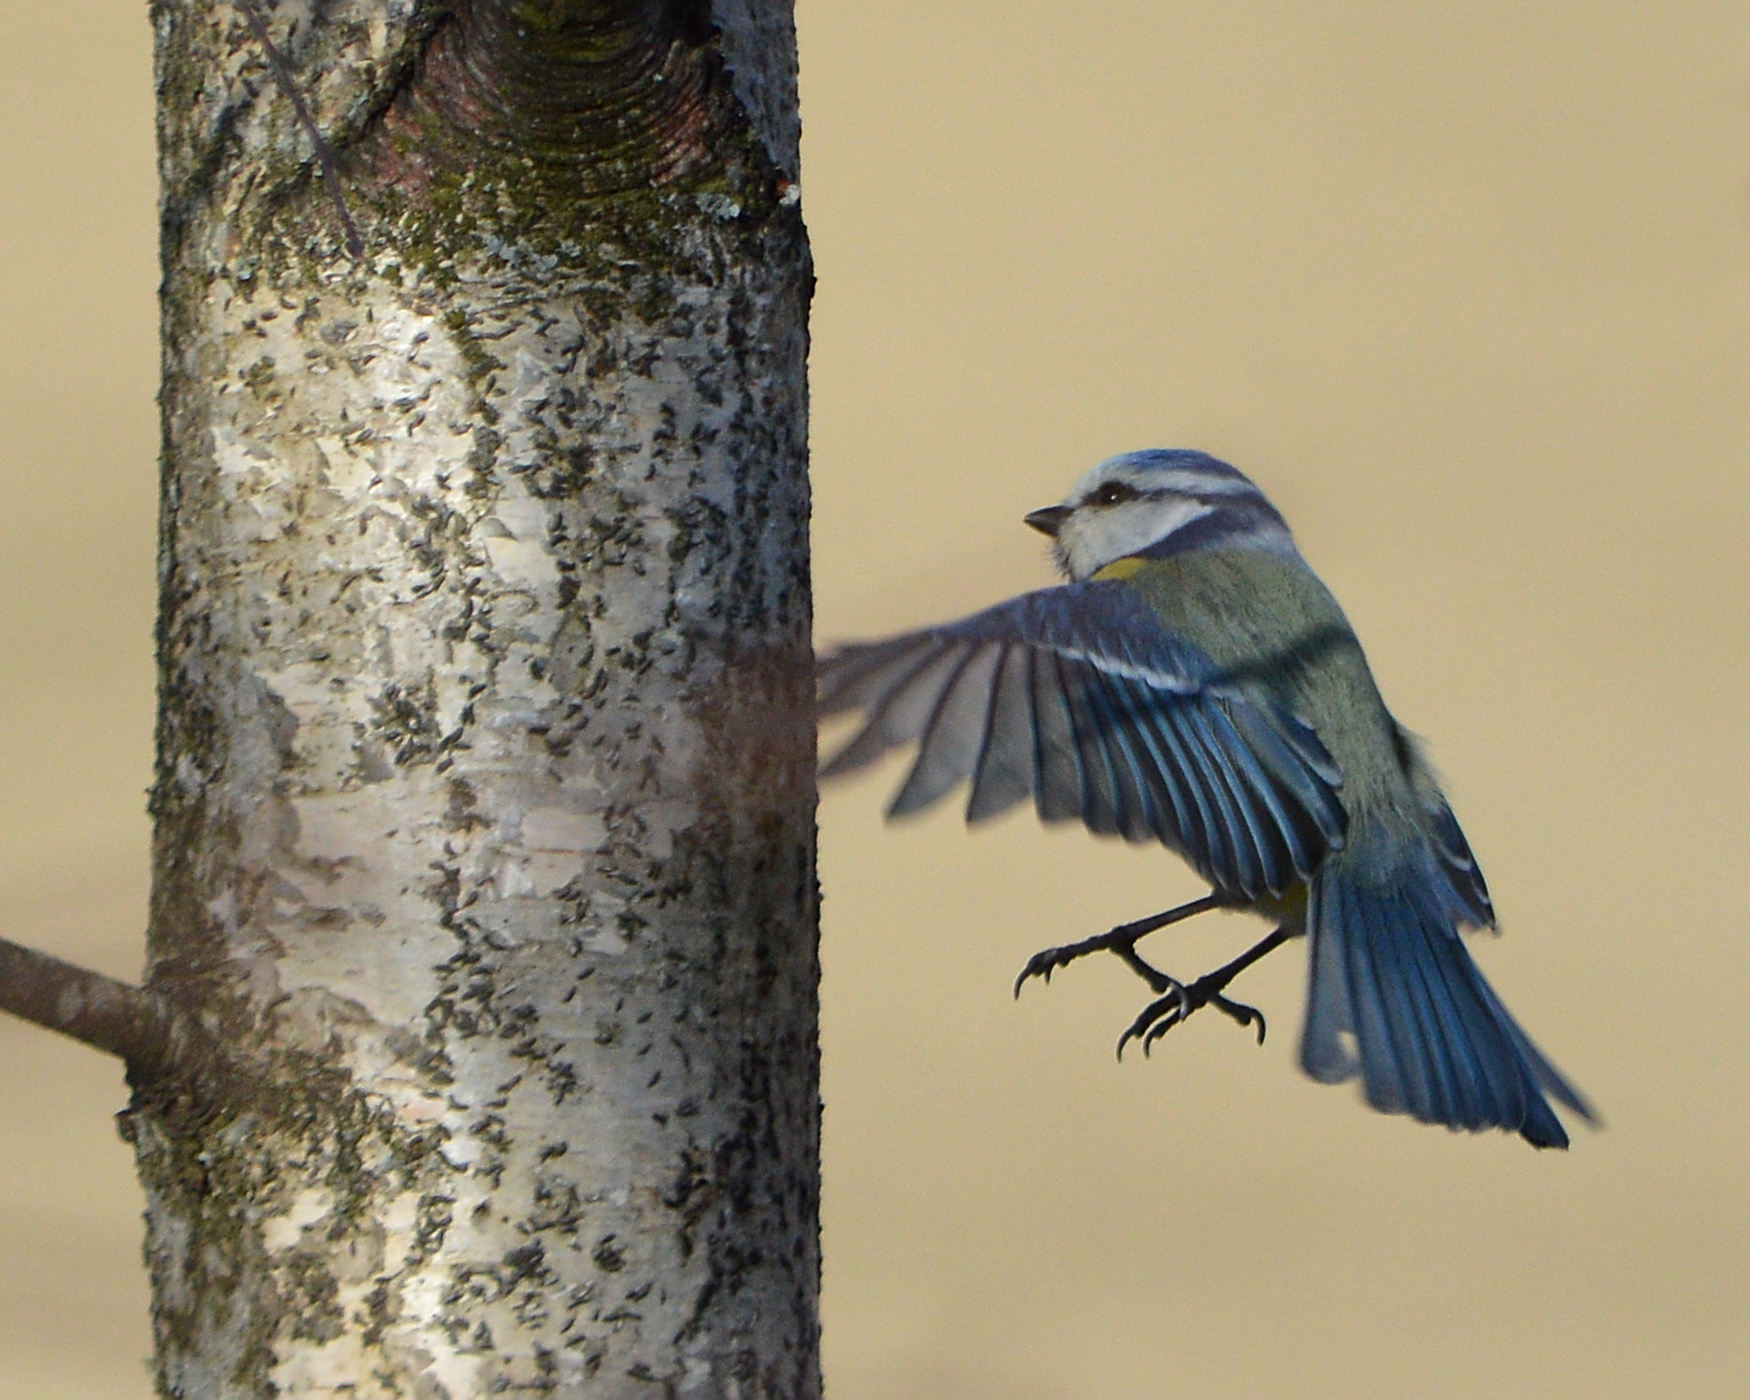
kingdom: Animalia
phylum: Chordata
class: Aves
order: Passeriformes
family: Paridae
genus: Cyanistes
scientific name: Cyanistes caeruleus
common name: Eurasian blue tit
